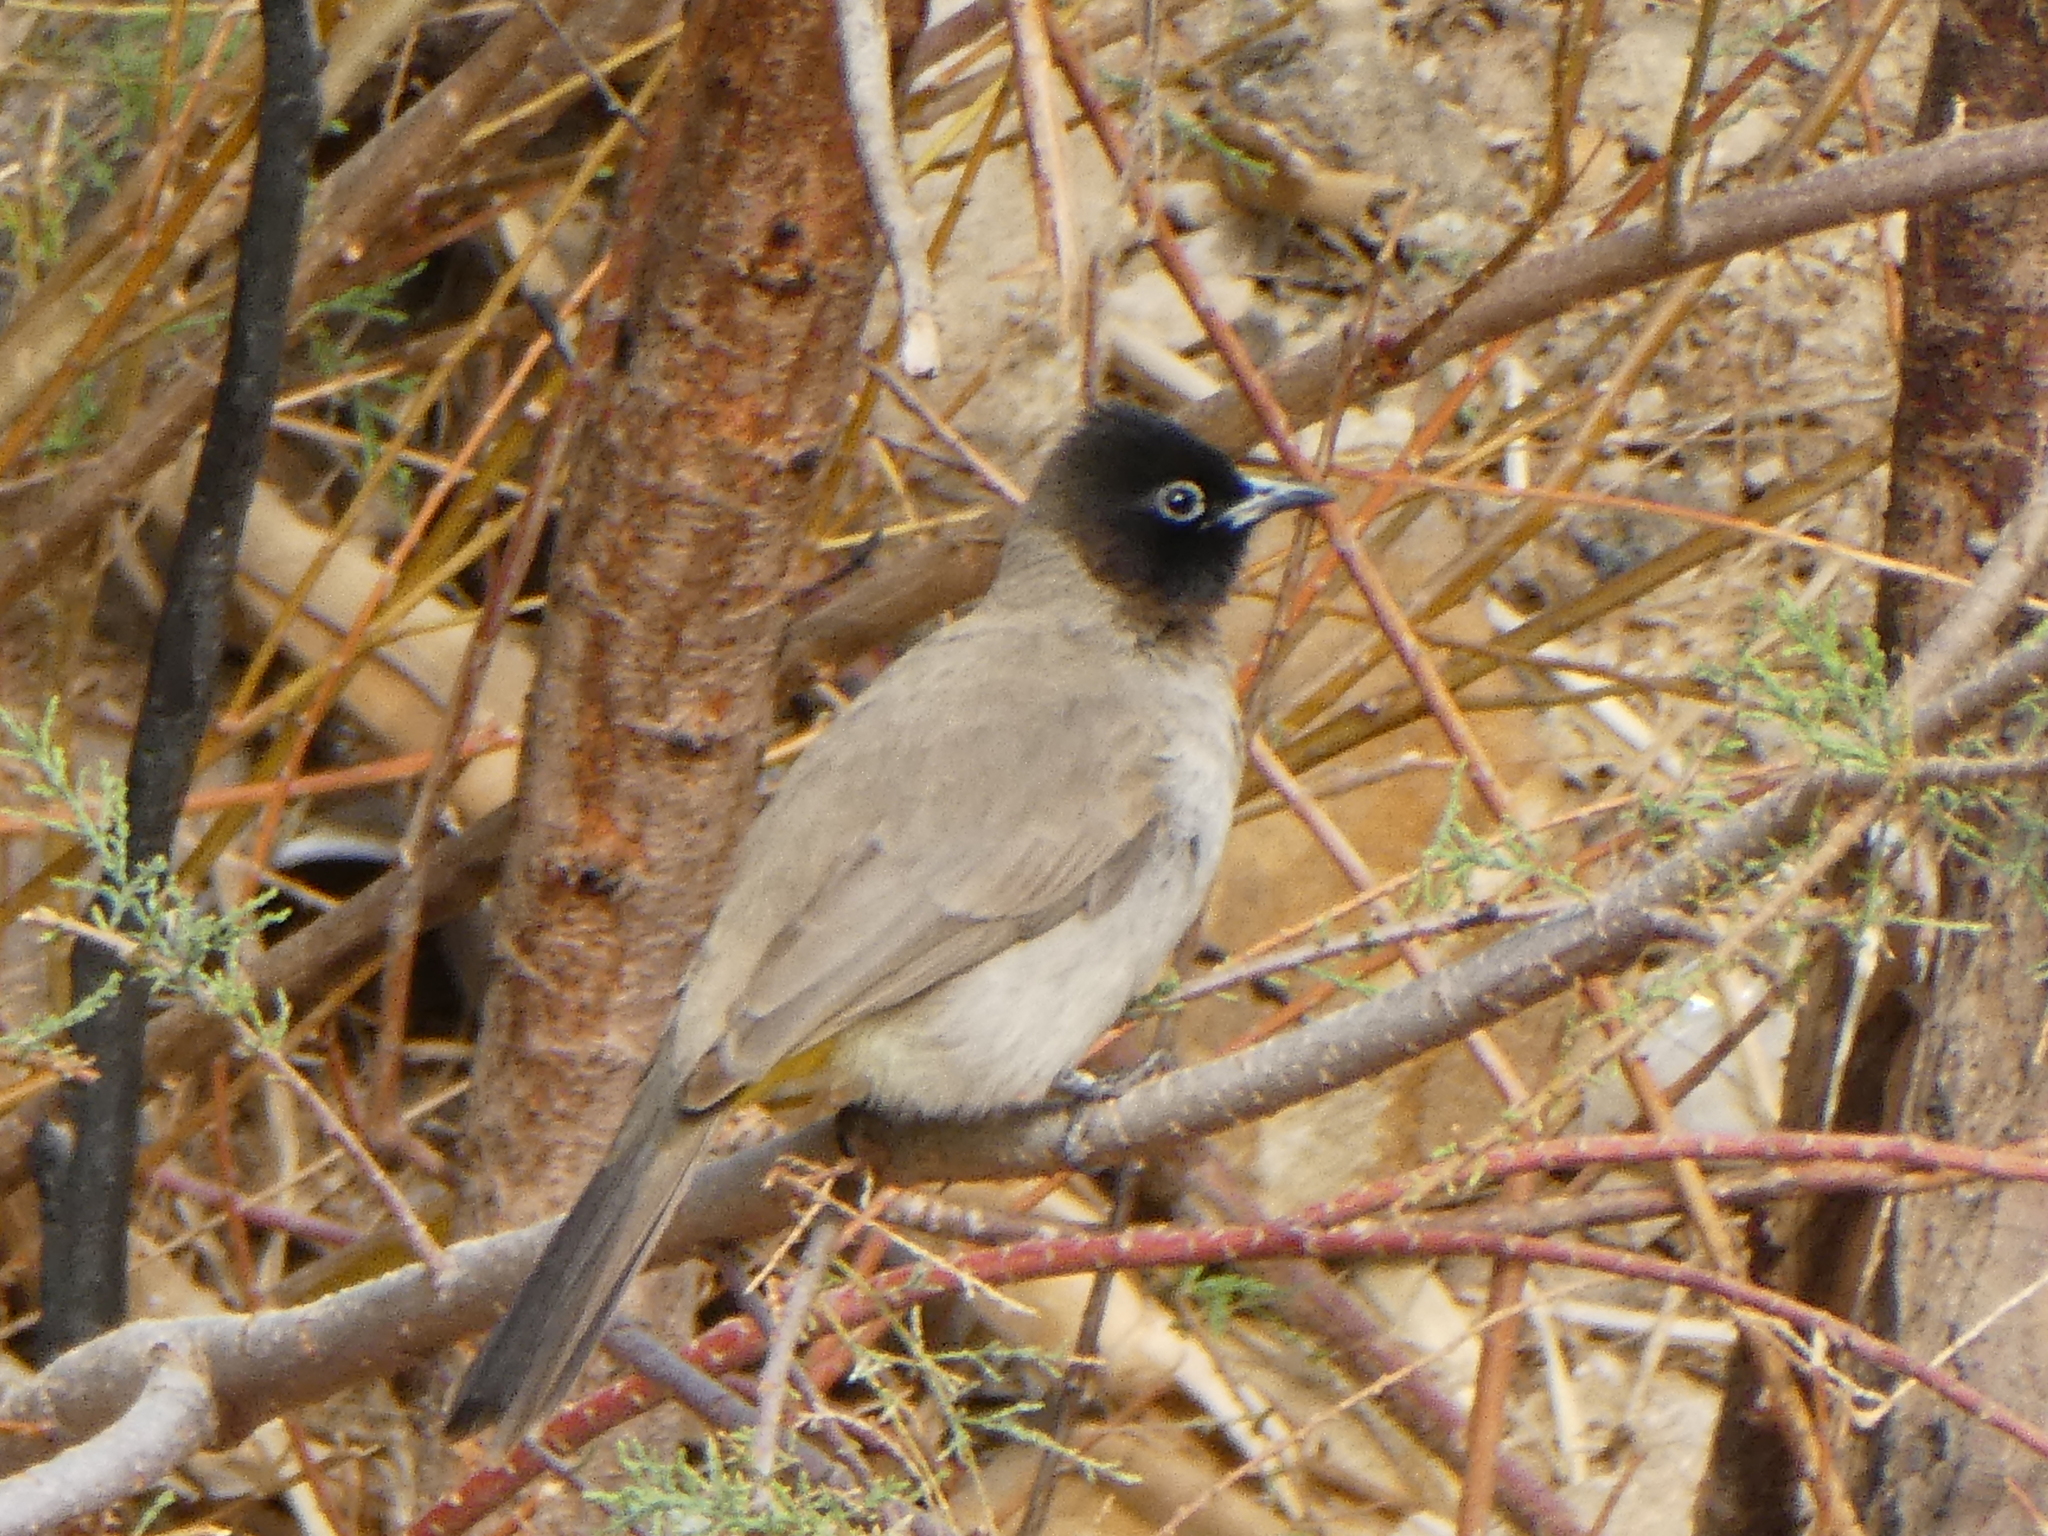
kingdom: Animalia
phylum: Chordata
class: Aves
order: Passeriformes
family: Pycnonotidae
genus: Pycnonotus
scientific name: Pycnonotus xanthopygos
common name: White-spectacled bulbul
